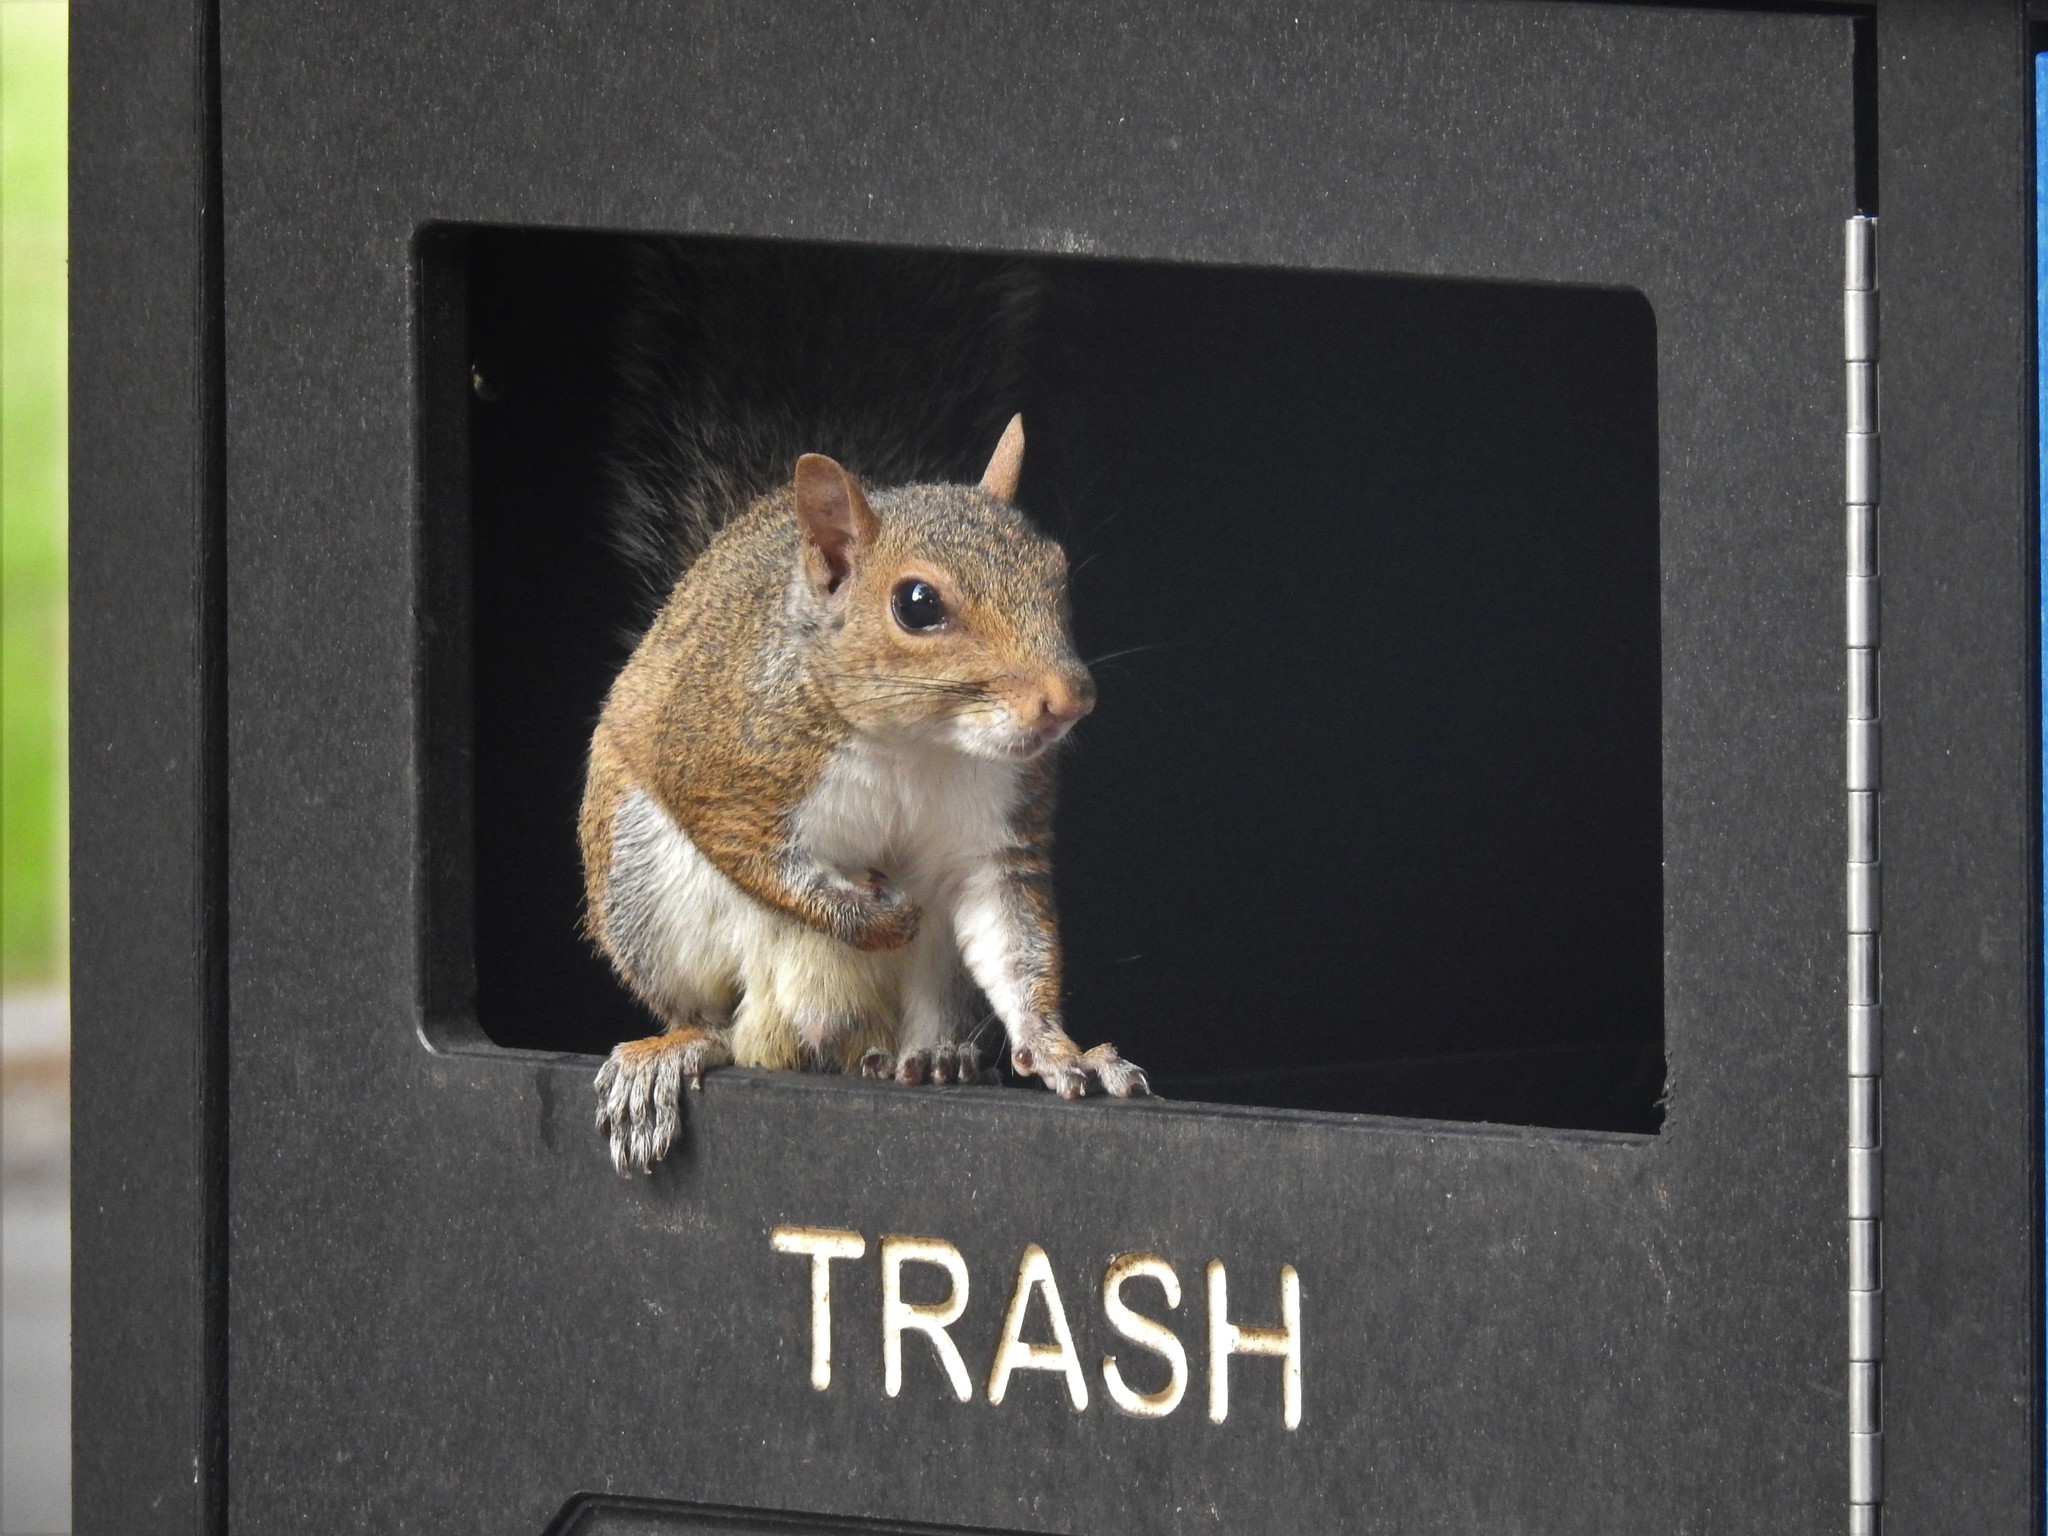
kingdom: Animalia
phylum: Chordata
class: Mammalia
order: Rodentia
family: Sciuridae
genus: Sciurus
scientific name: Sciurus carolinensis
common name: Eastern gray squirrel
